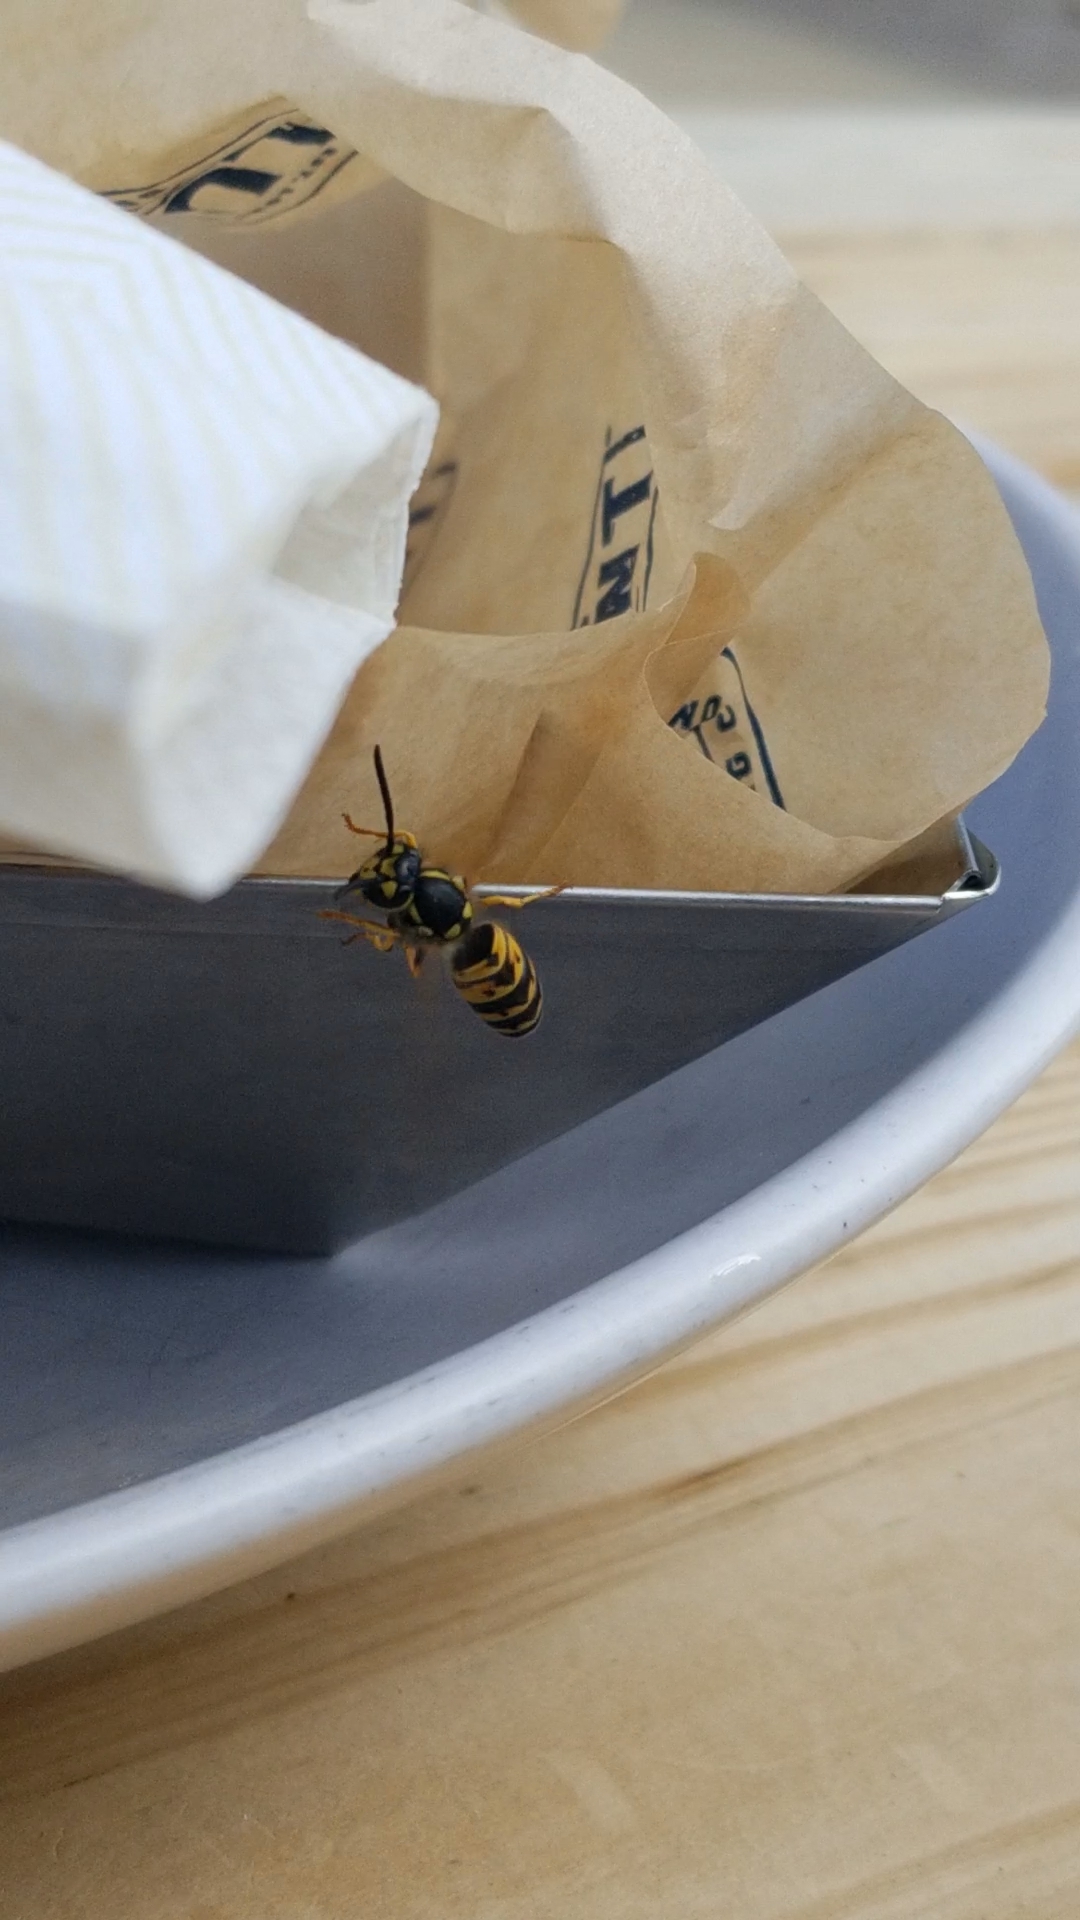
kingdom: Animalia
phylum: Arthropoda
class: Insecta
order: Hymenoptera
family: Vespidae
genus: Vespula
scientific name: Vespula germanica
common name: German wasp
